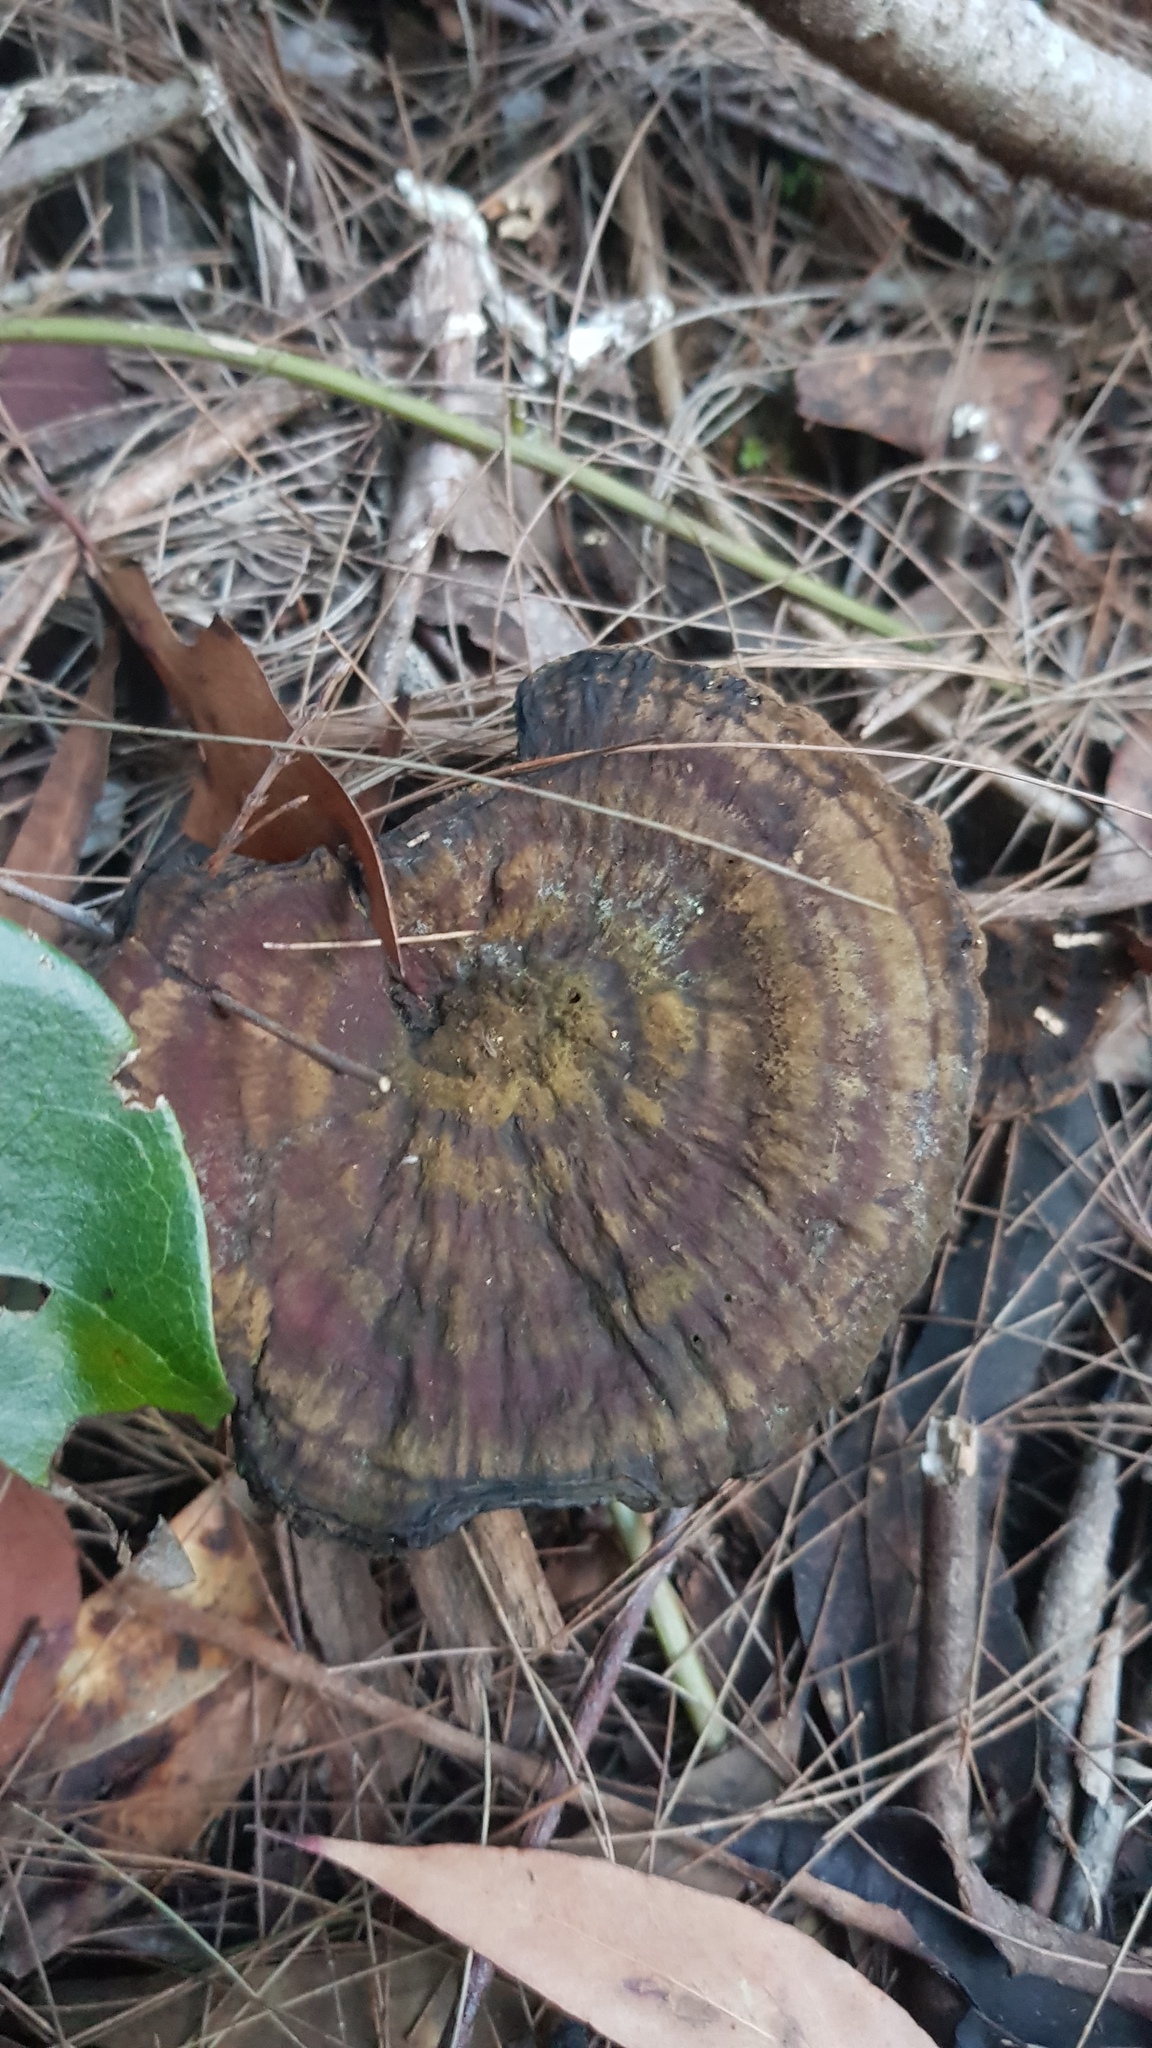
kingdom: Fungi
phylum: Basidiomycota
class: Agaricomycetes
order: Polyporales
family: Ganodermataceae
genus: Sanguinoderma
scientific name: Sanguinoderma rude
